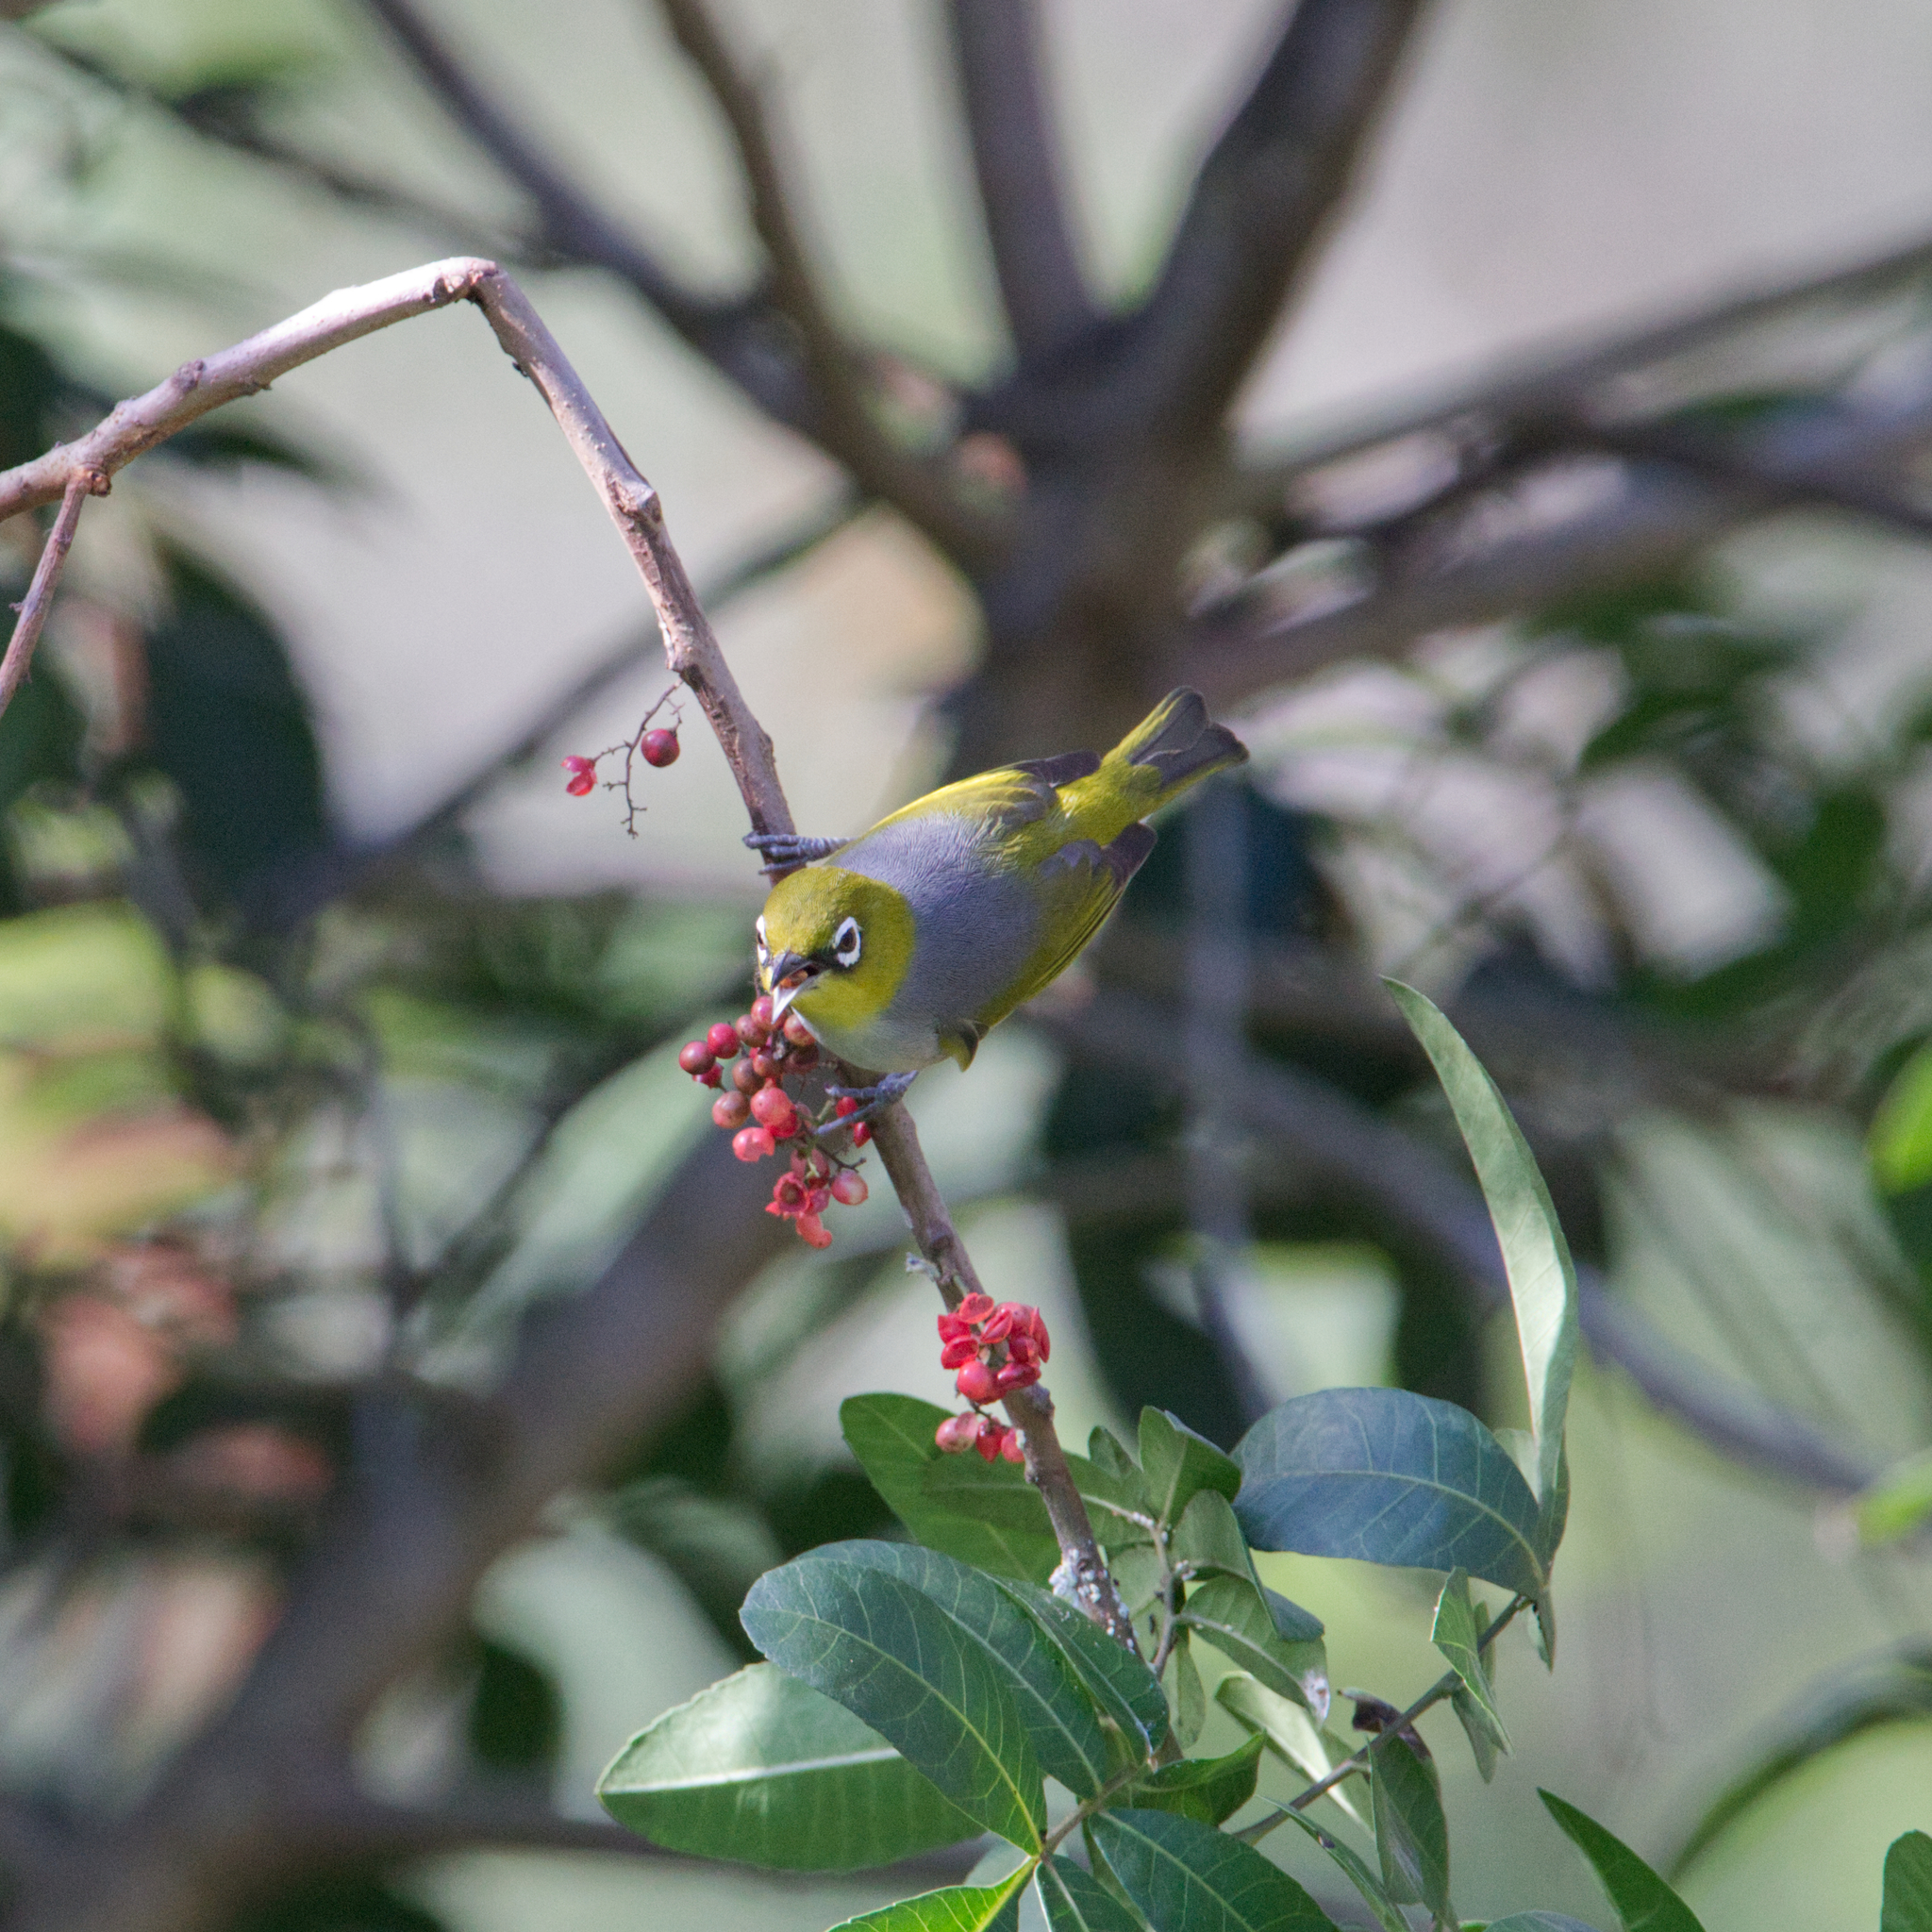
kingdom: Animalia
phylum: Chordata
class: Aves
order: Passeriformes
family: Zosteropidae
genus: Zosterops
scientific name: Zosterops lateralis
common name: Silvereye
